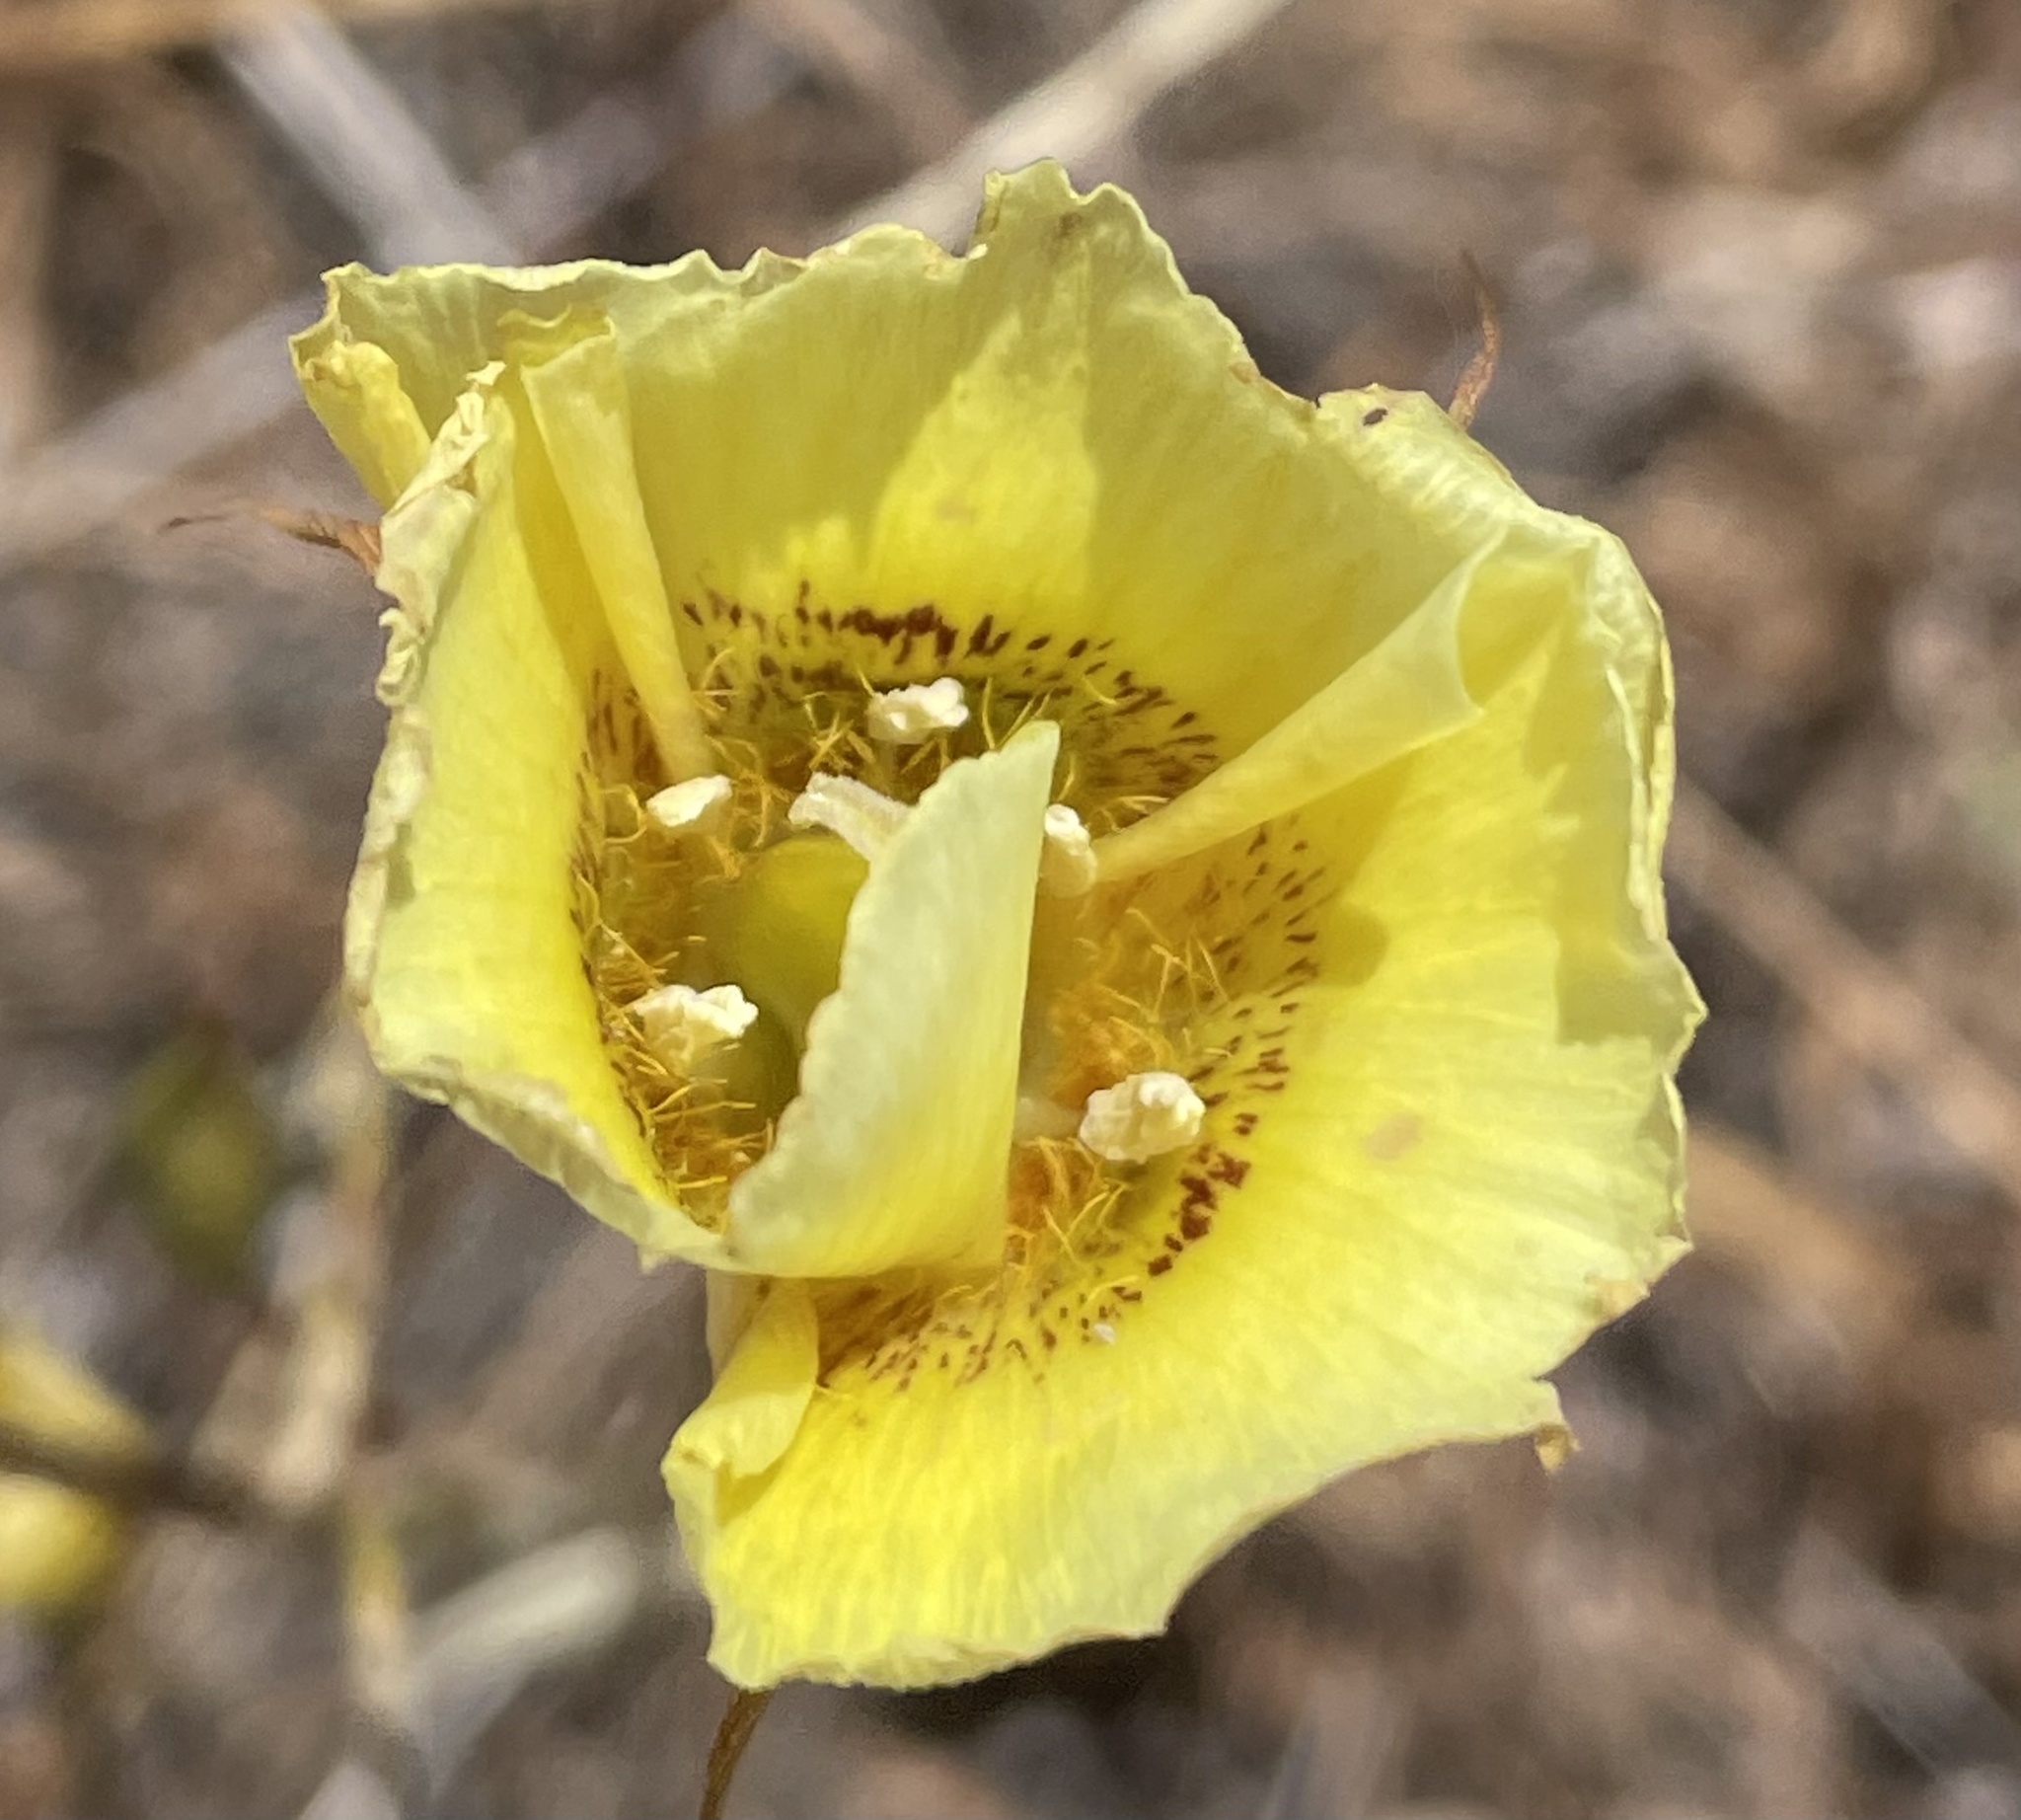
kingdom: Plantae
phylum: Tracheophyta
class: Liliopsida
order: Liliales
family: Liliaceae
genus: Calochortus
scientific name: Calochortus luteus
